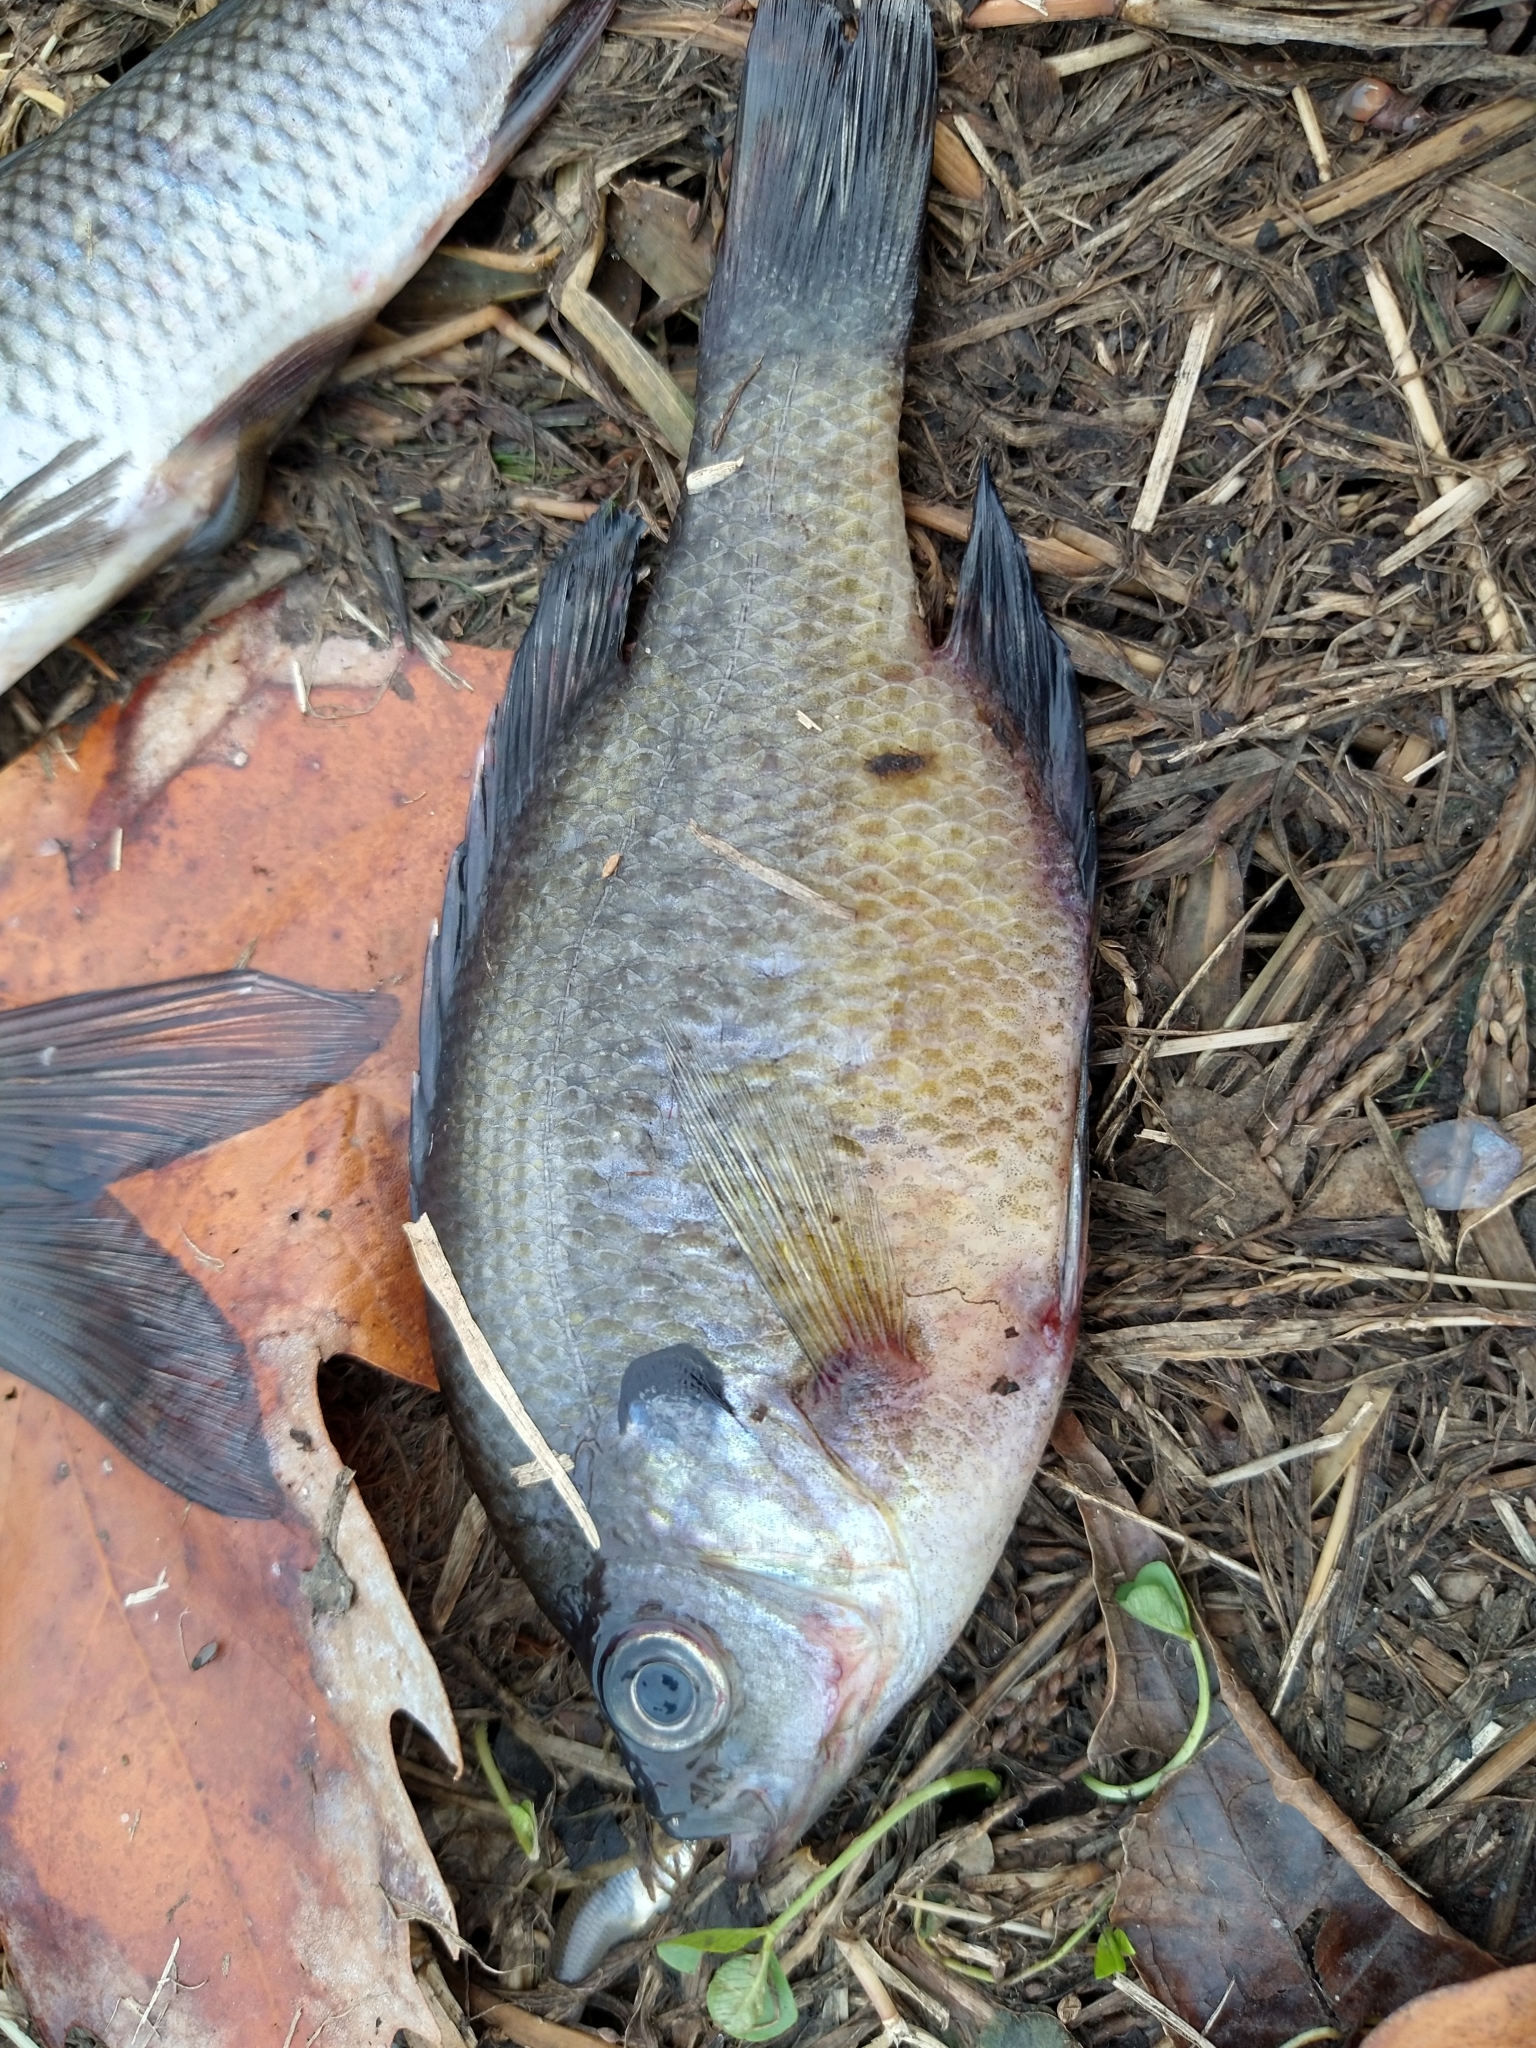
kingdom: Animalia
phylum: Chordata
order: Perciformes
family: Centrarchidae
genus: Lepomis
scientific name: Lepomis macrochirus
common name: Bluegill
